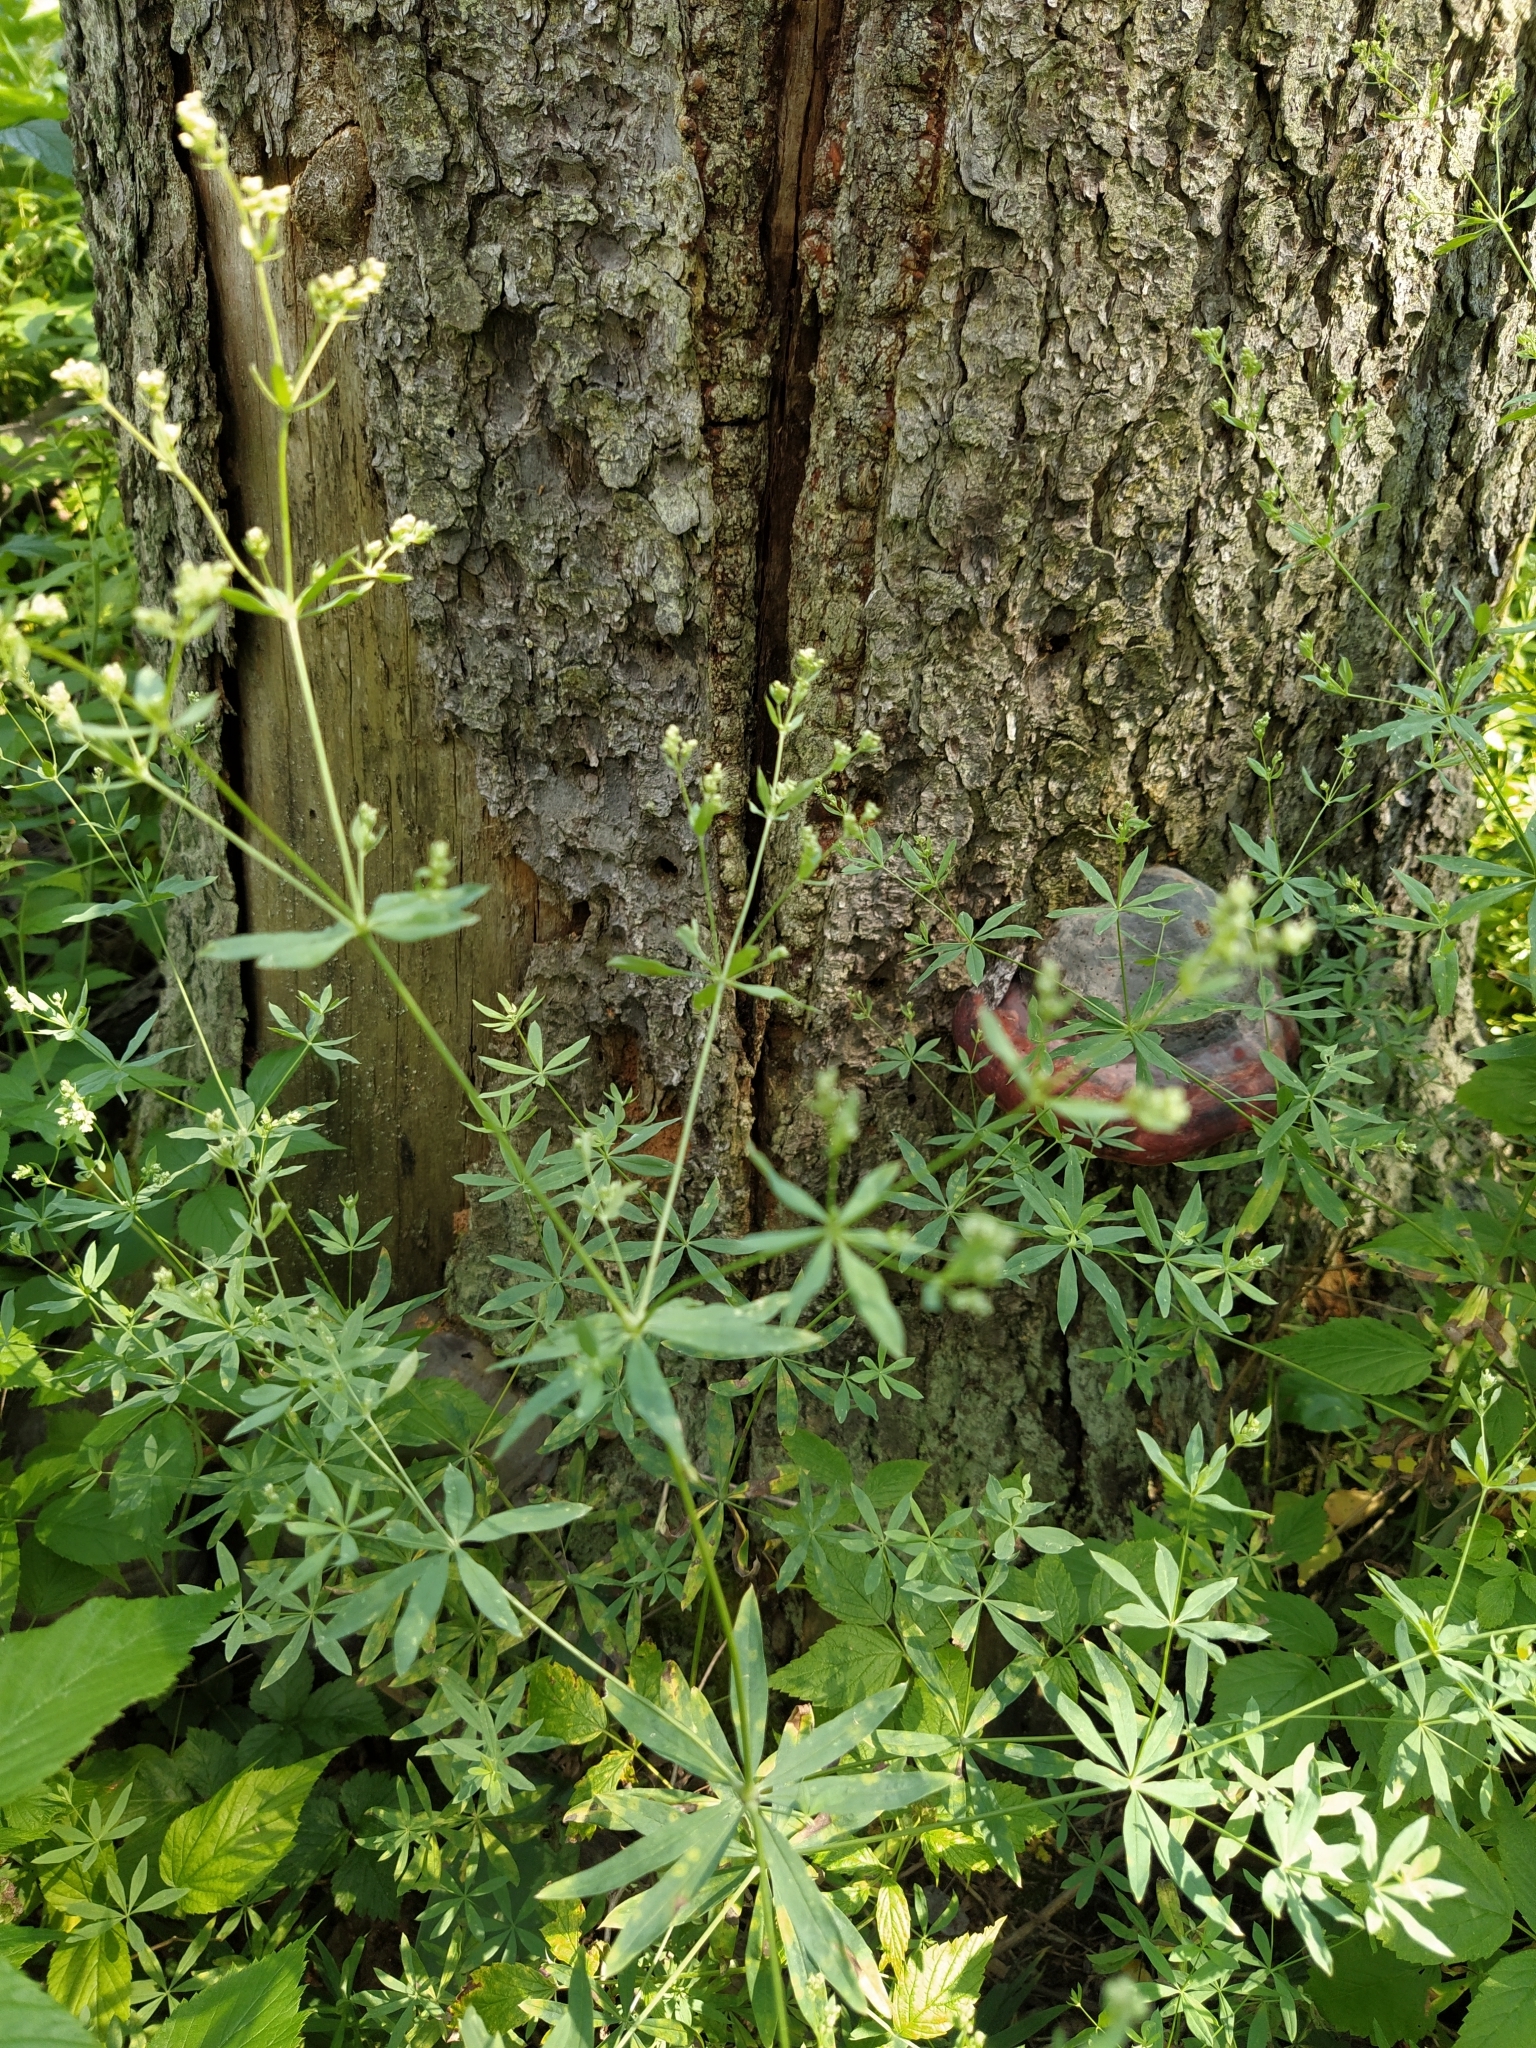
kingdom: Plantae
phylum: Tracheophyta
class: Magnoliopsida
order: Gentianales
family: Rubiaceae
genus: Galium
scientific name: Galium intermedium
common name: Bedstraw
